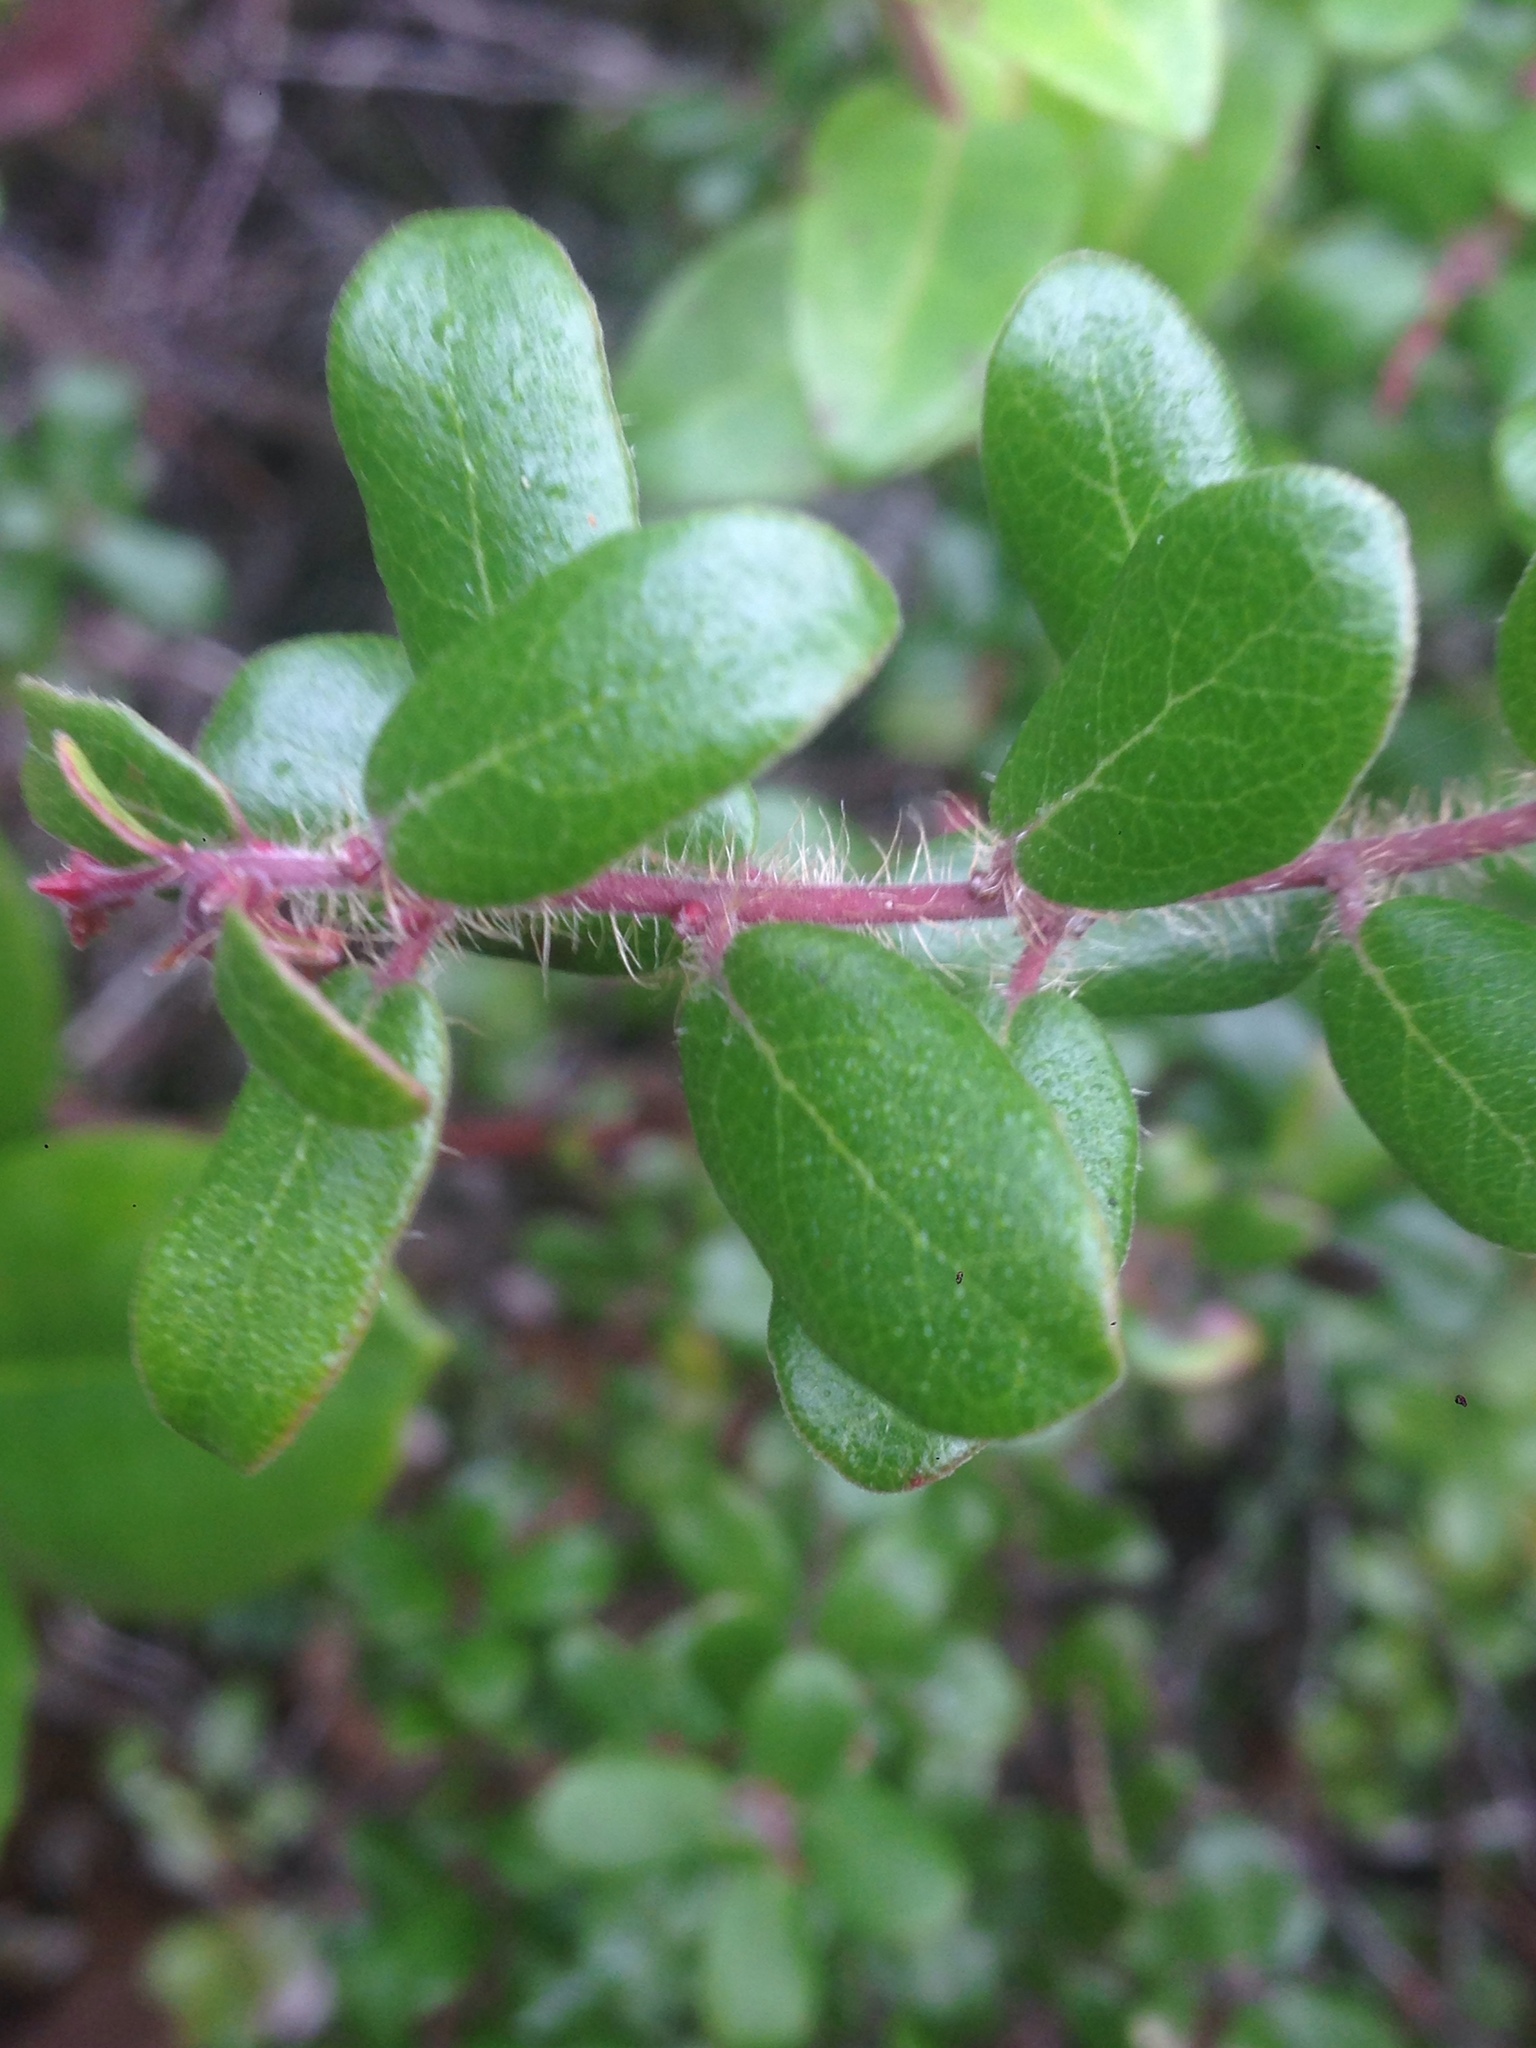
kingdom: Plantae
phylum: Tracheophyta
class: Magnoliopsida
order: Ericales
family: Ericaceae
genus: Arctostaphylos
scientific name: Arctostaphylos nummularia
